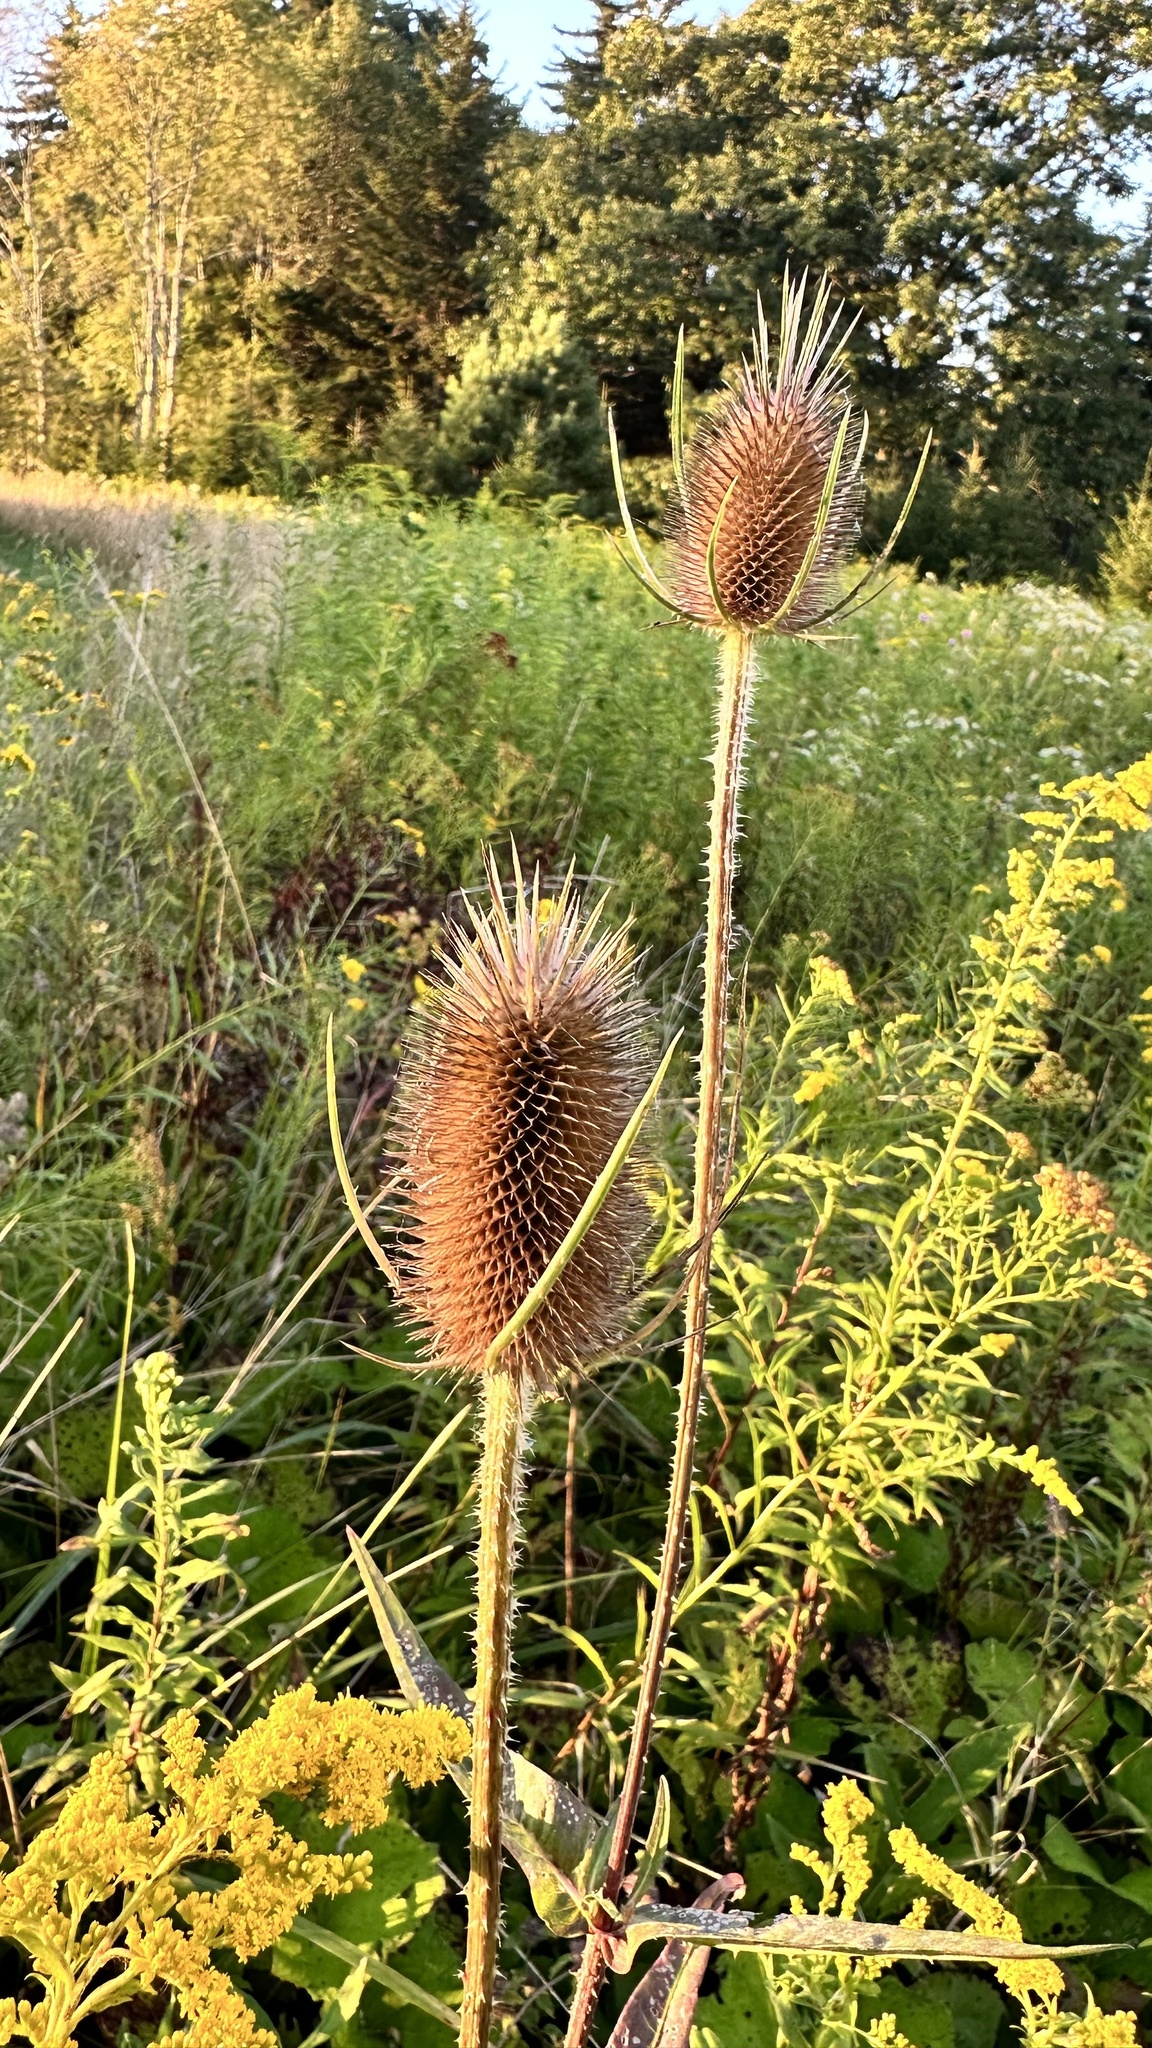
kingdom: Plantae
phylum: Tracheophyta
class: Magnoliopsida
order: Dipsacales
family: Caprifoliaceae
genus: Dipsacus
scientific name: Dipsacus fullonum
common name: Teasel
